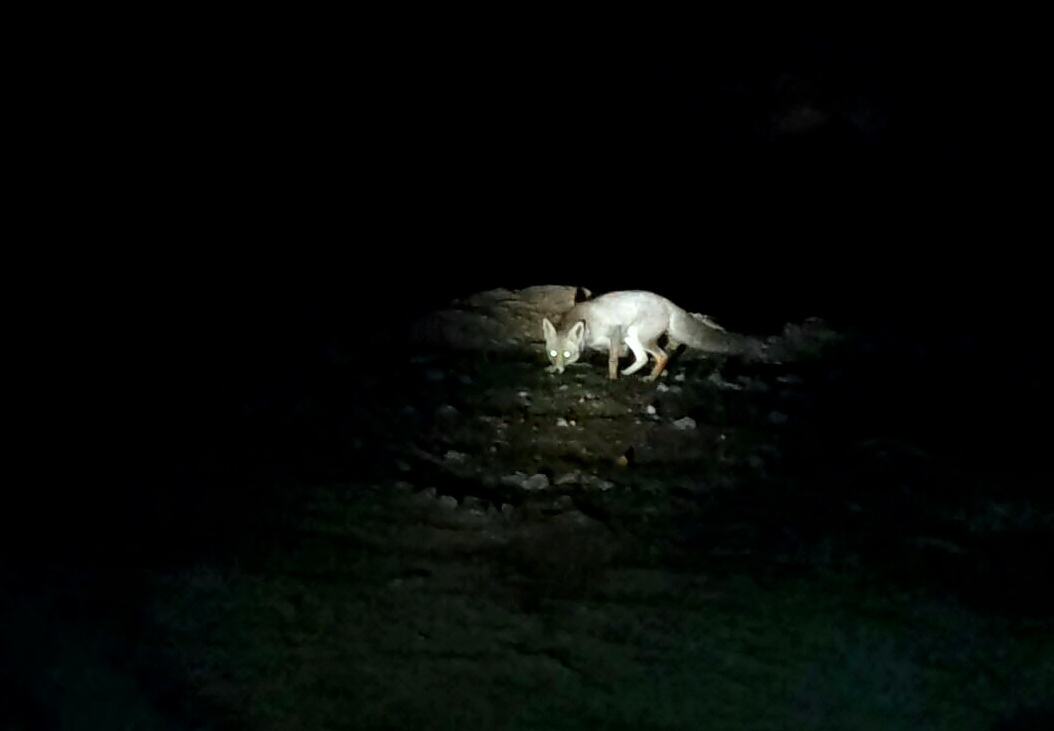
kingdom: Animalia
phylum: Chordata
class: Mammalia
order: Carnivora
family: Canidae
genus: Vulpes
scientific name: Vulpes vulpes
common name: Red fox
